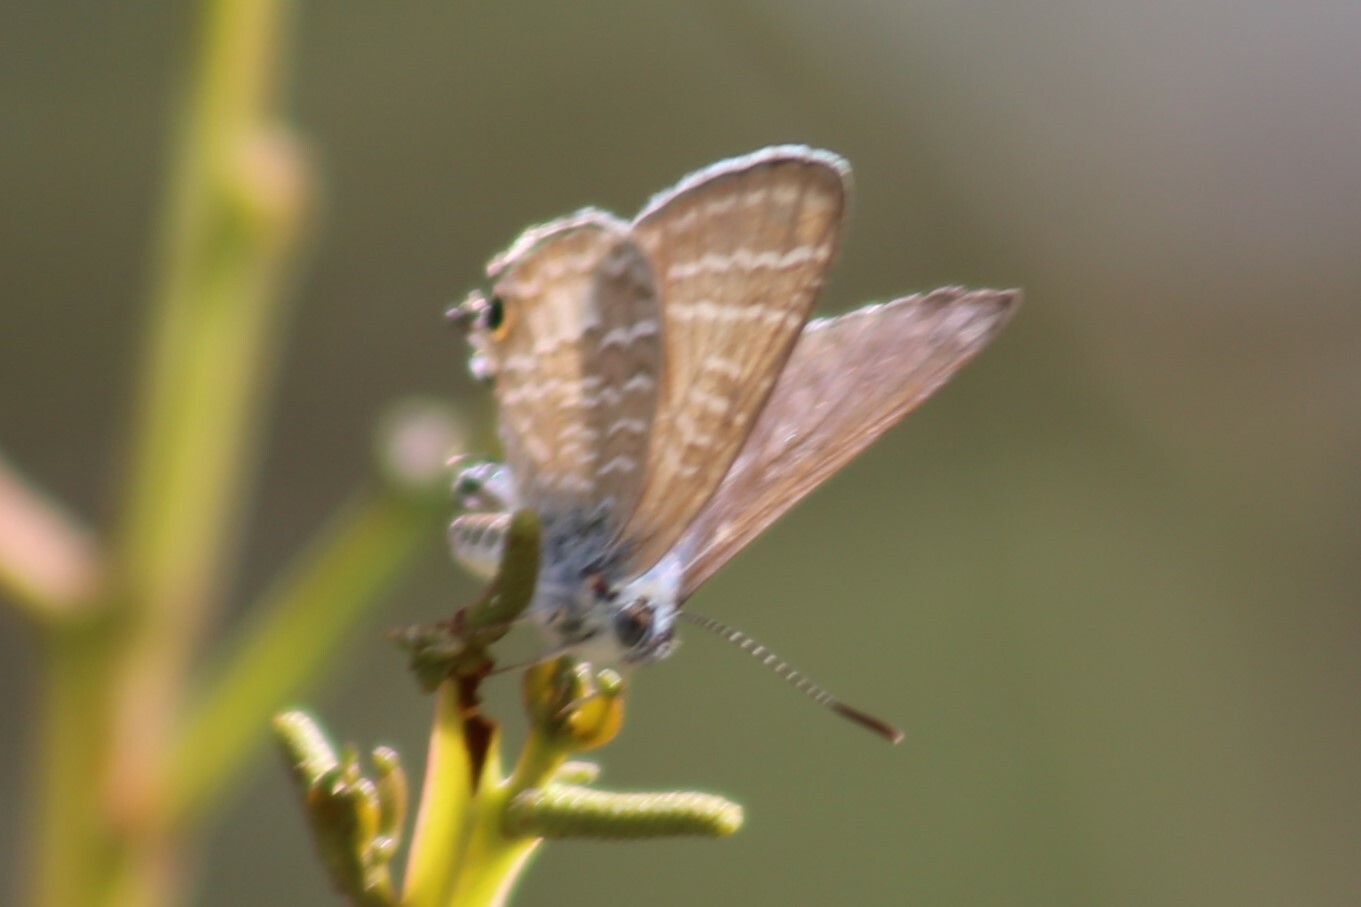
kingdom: Animalia
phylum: Arthropoda
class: Insecta
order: Lepidoptera
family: Lycaenidae
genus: Theclinesthes
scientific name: Theclinesthes onycha
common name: Cycad blue
